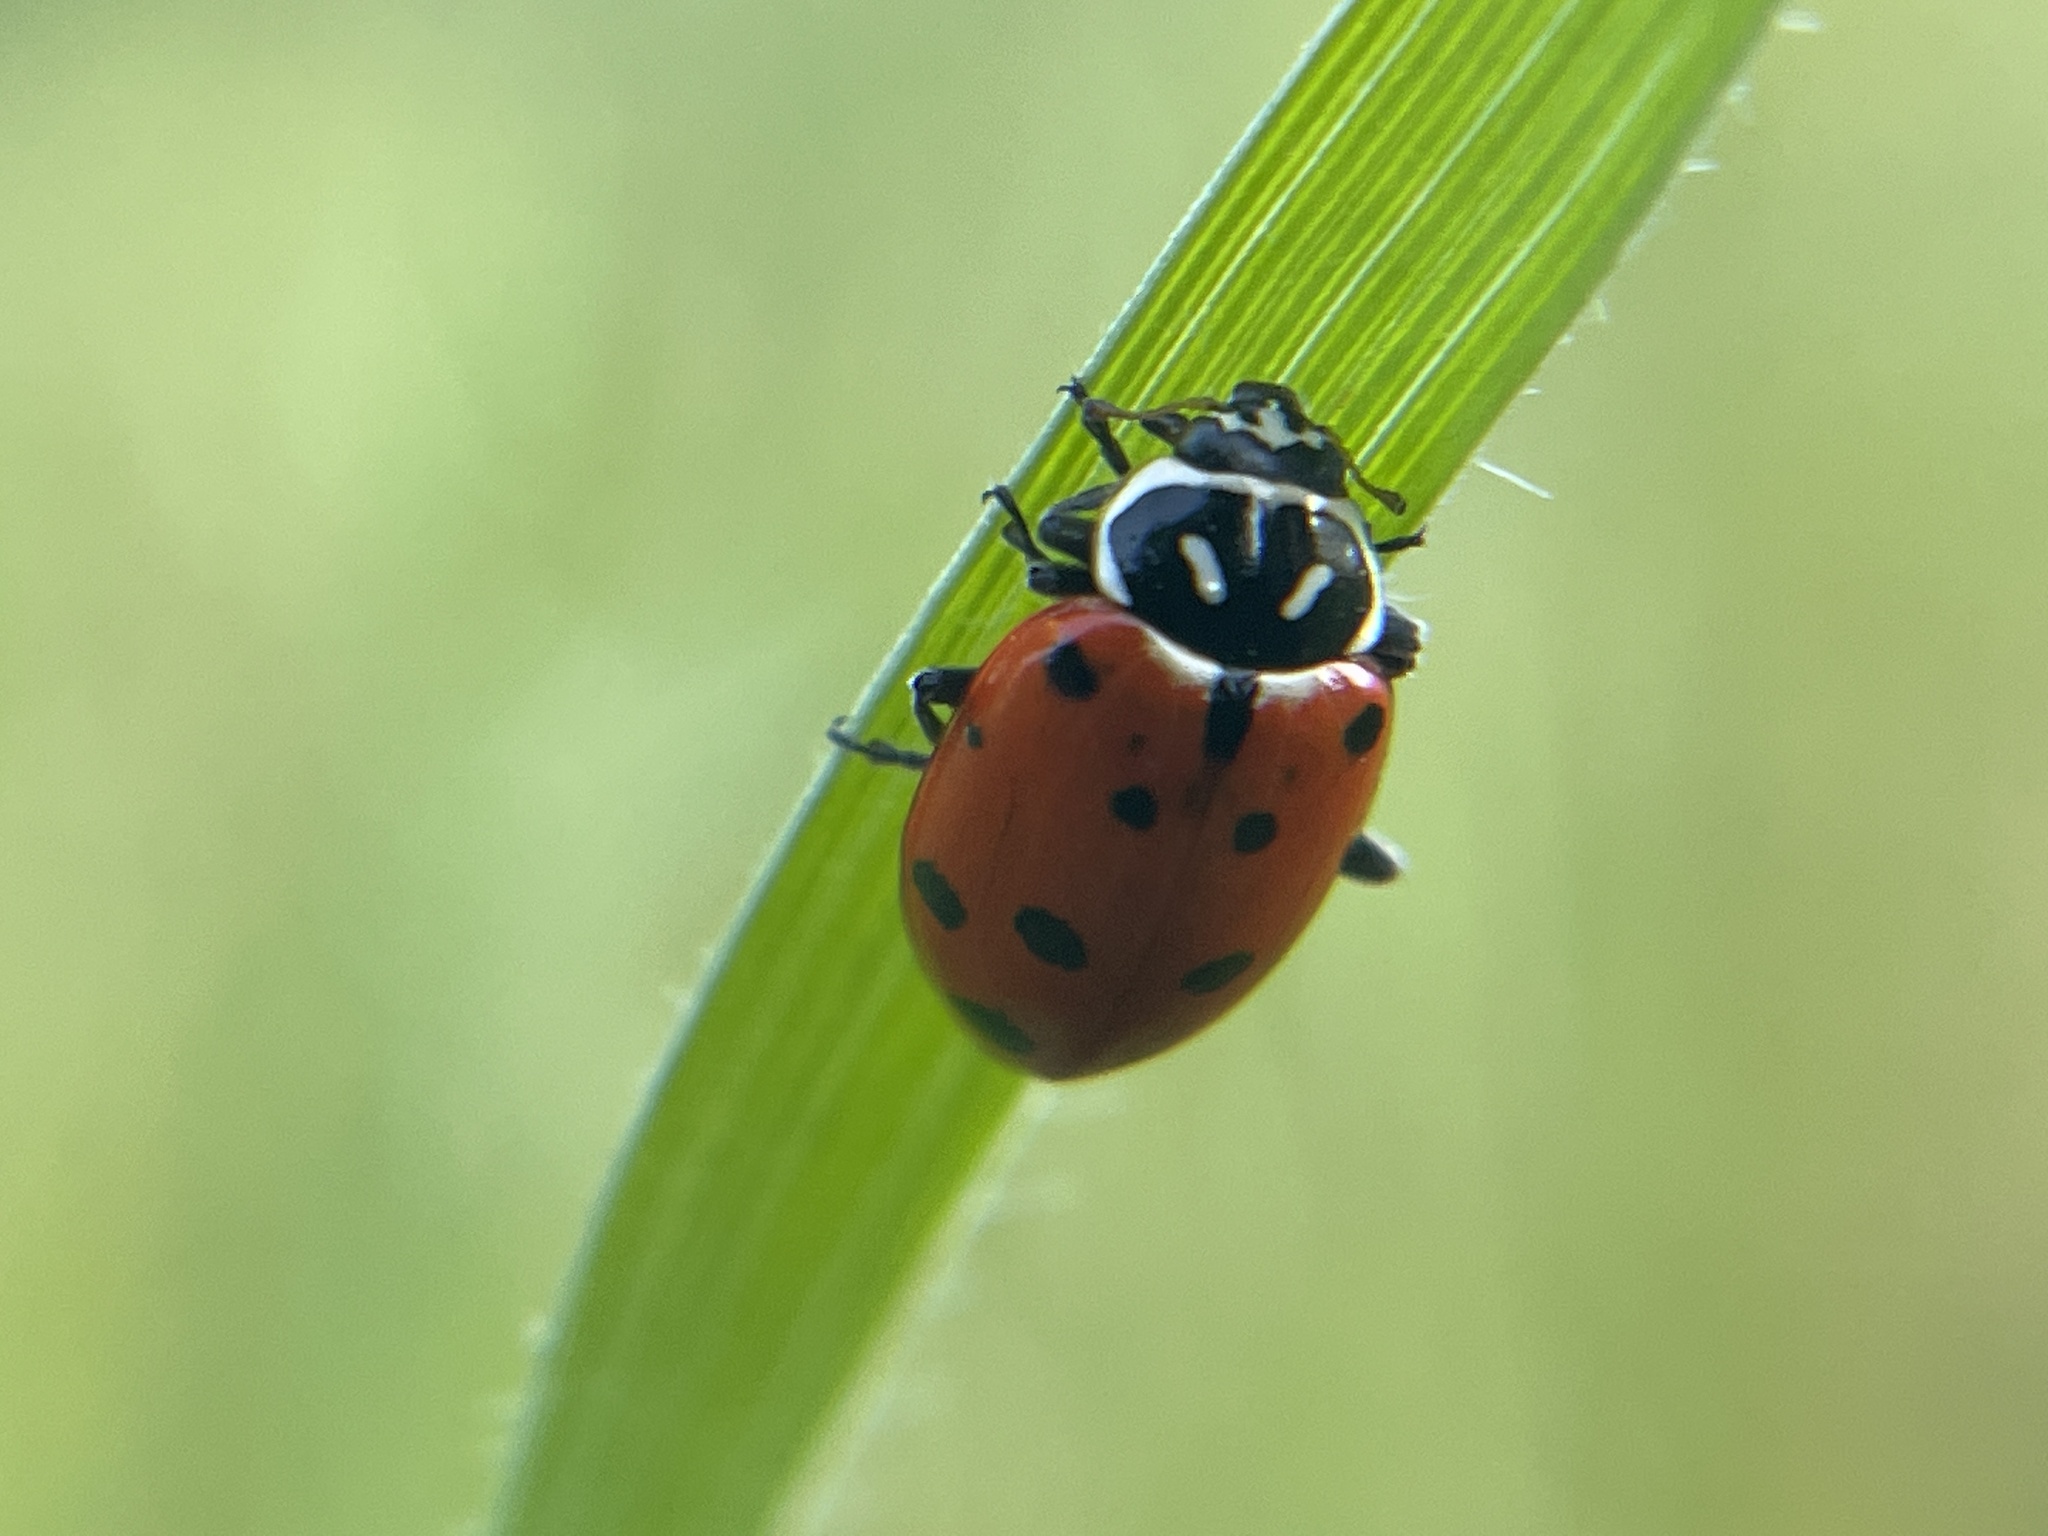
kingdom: Animalia
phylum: Arthropoda
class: Insecta
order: Coleoptera
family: Coccinellidae
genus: Hippodamia
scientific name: Hippodamia convergens
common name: Convergent lady beetle
